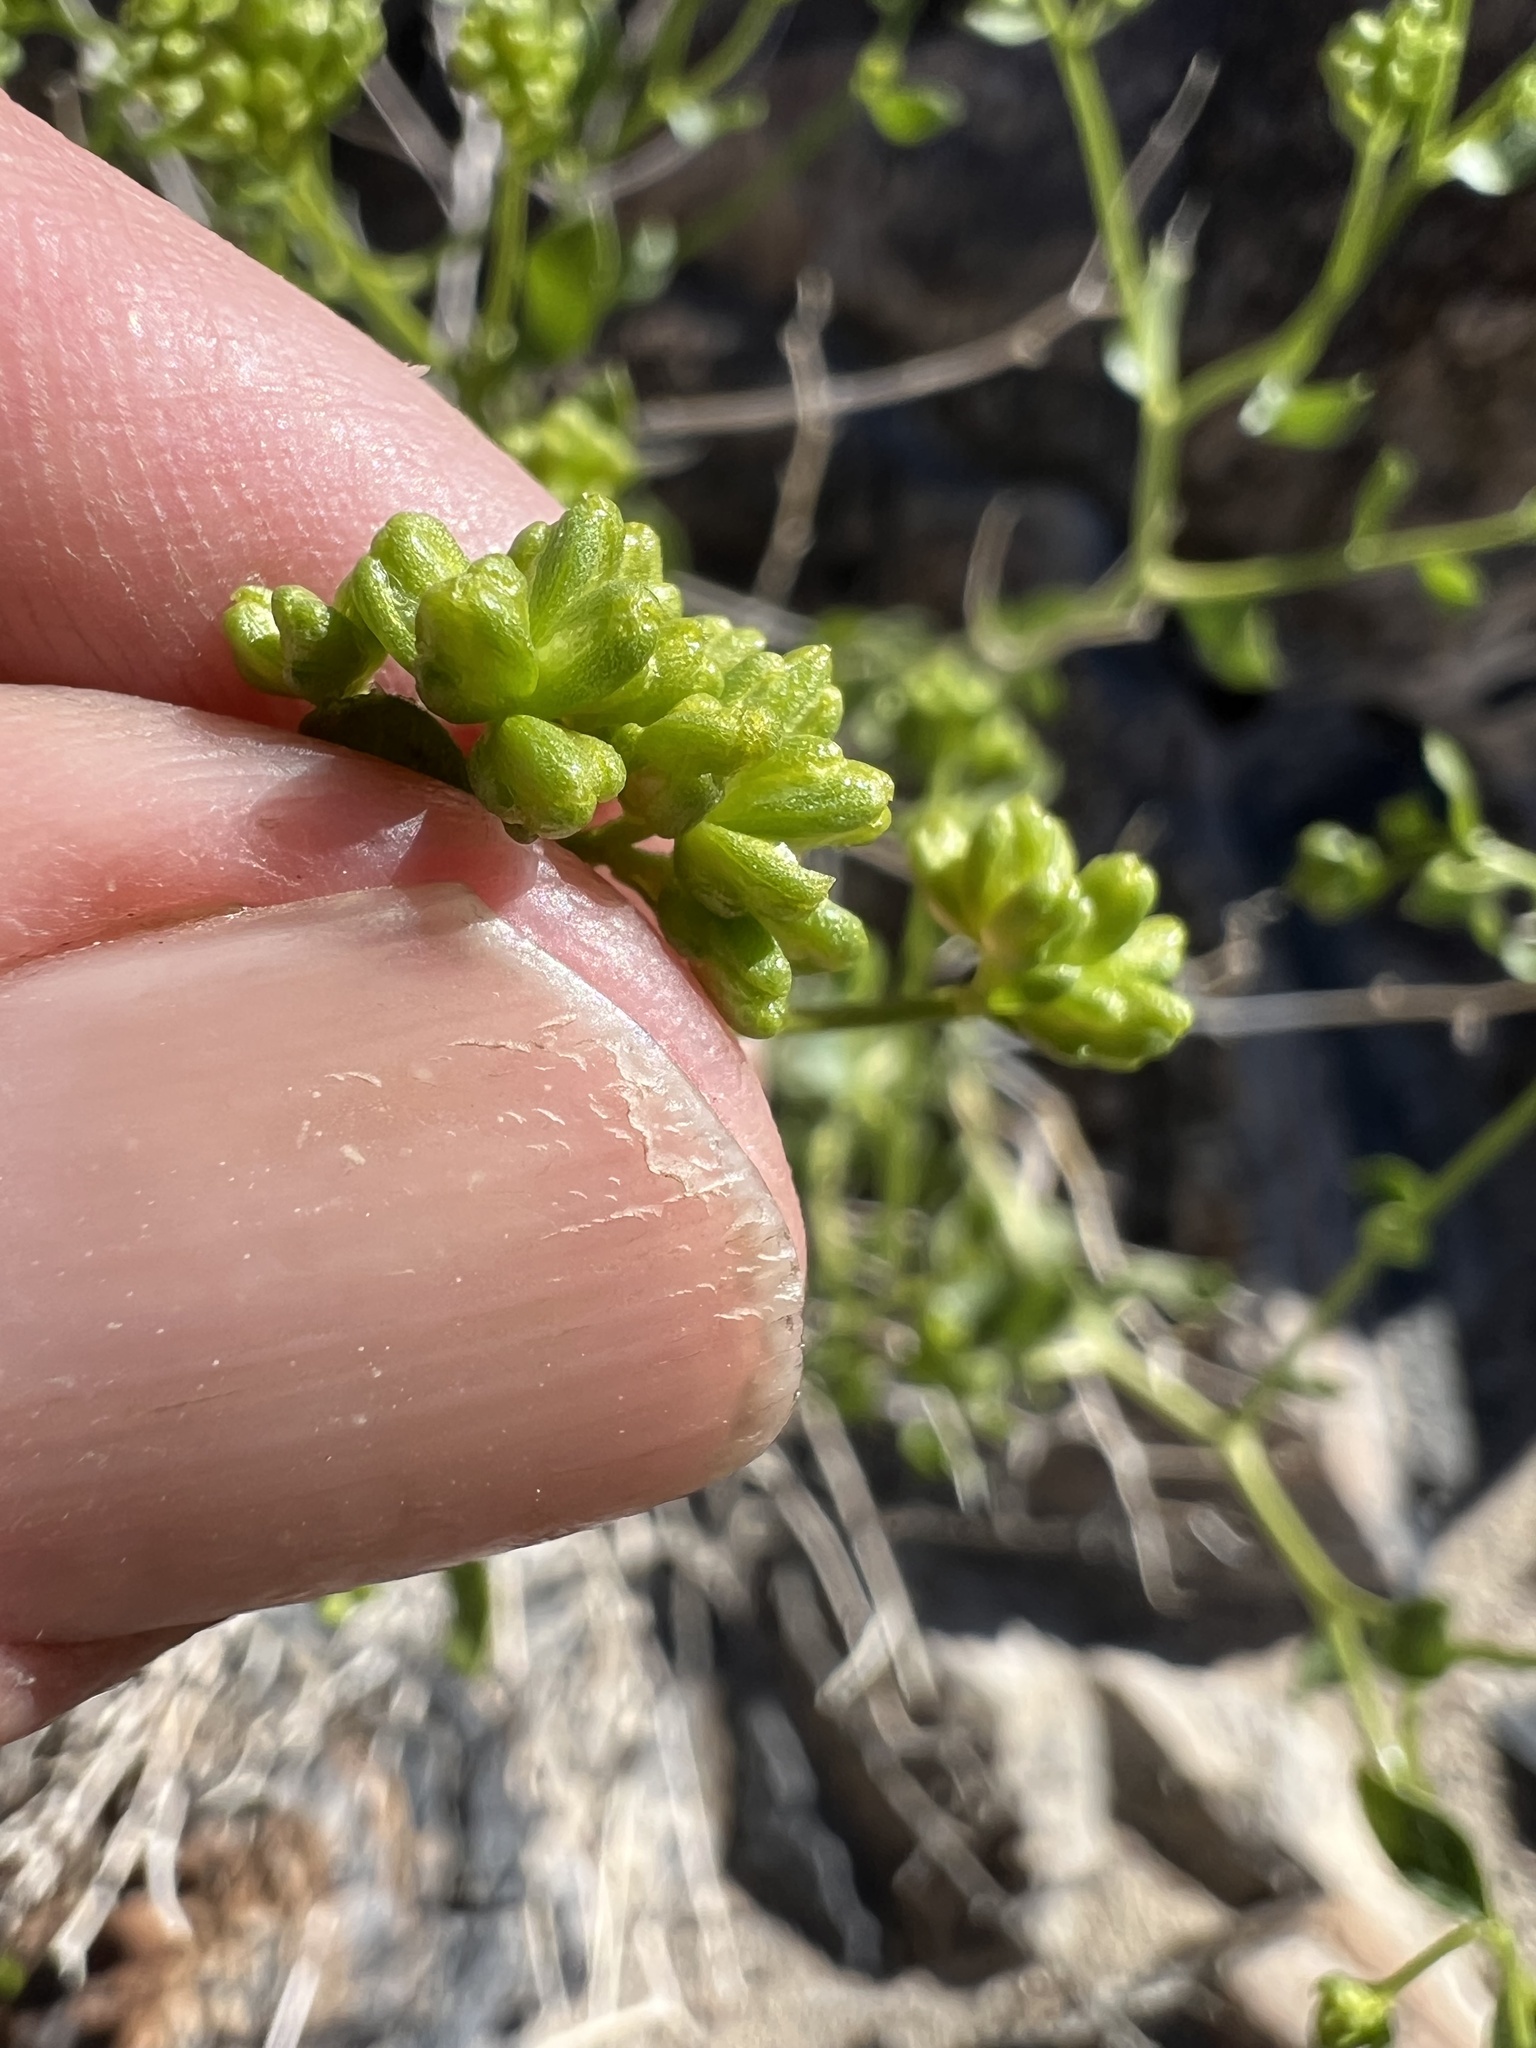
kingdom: Plantae
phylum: Tracheophyta
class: Magnoliopsida
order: Asterales
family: Asteraceae
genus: Amphipappus
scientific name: Amphipappus fremontii
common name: Fremont's chaffbush
